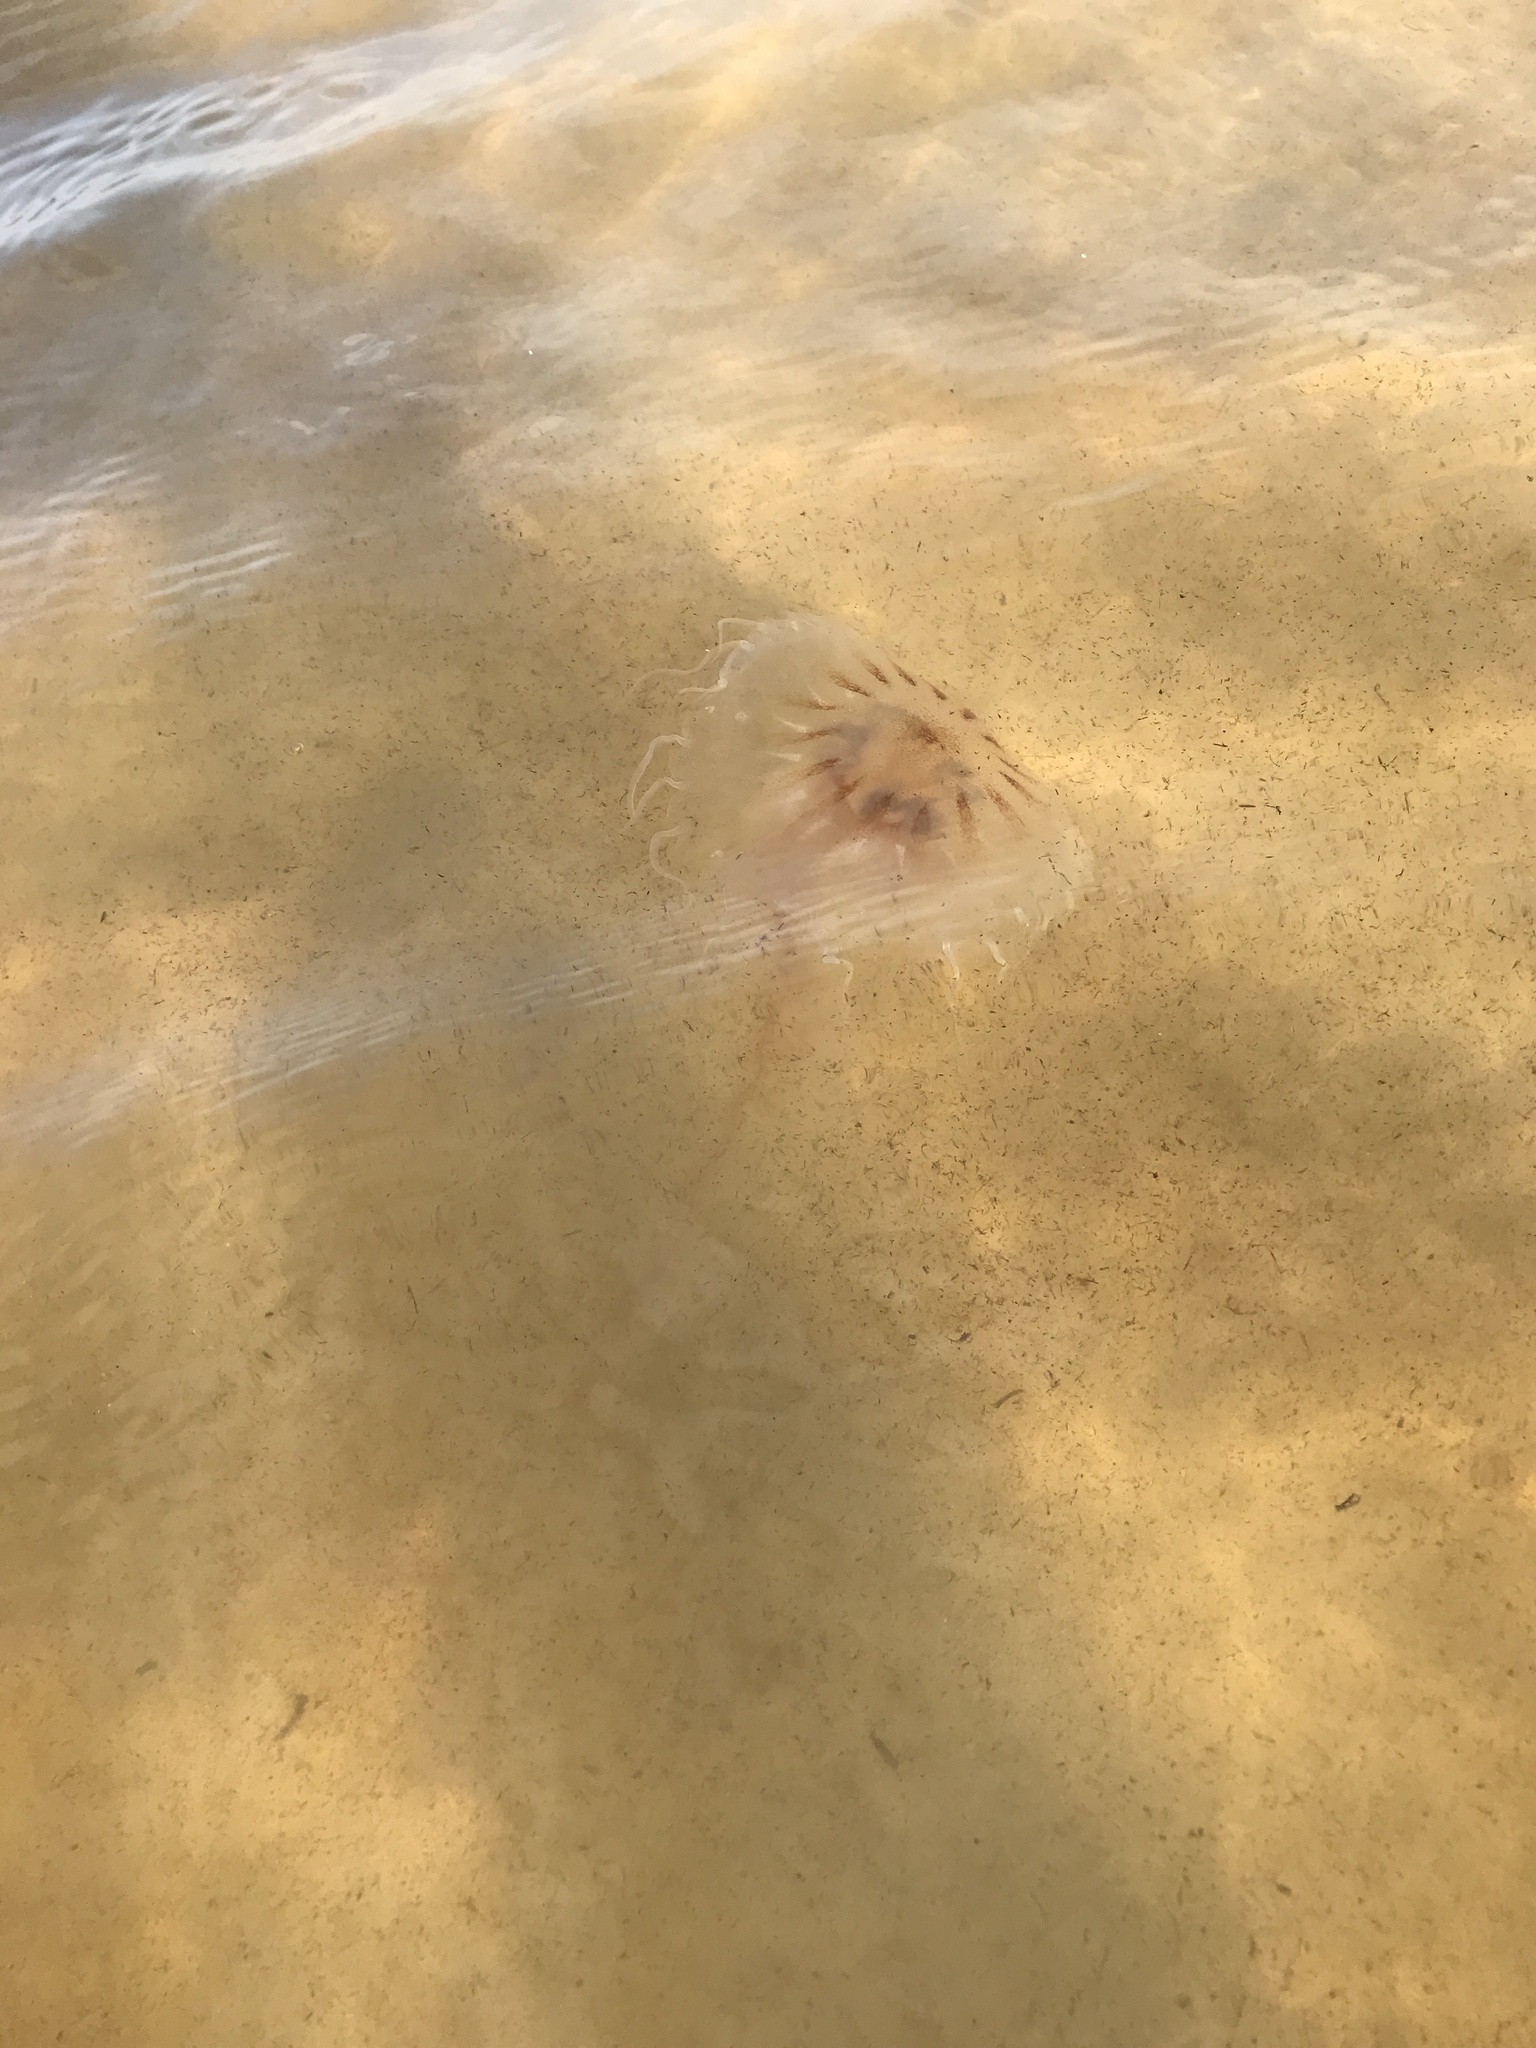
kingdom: Animalia
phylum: Cnidaria
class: Scyphozoa
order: Semaeostomeae
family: Pelagiidae
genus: Chrysaora
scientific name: Chrysaora chesapeakei
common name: Bay nettle
